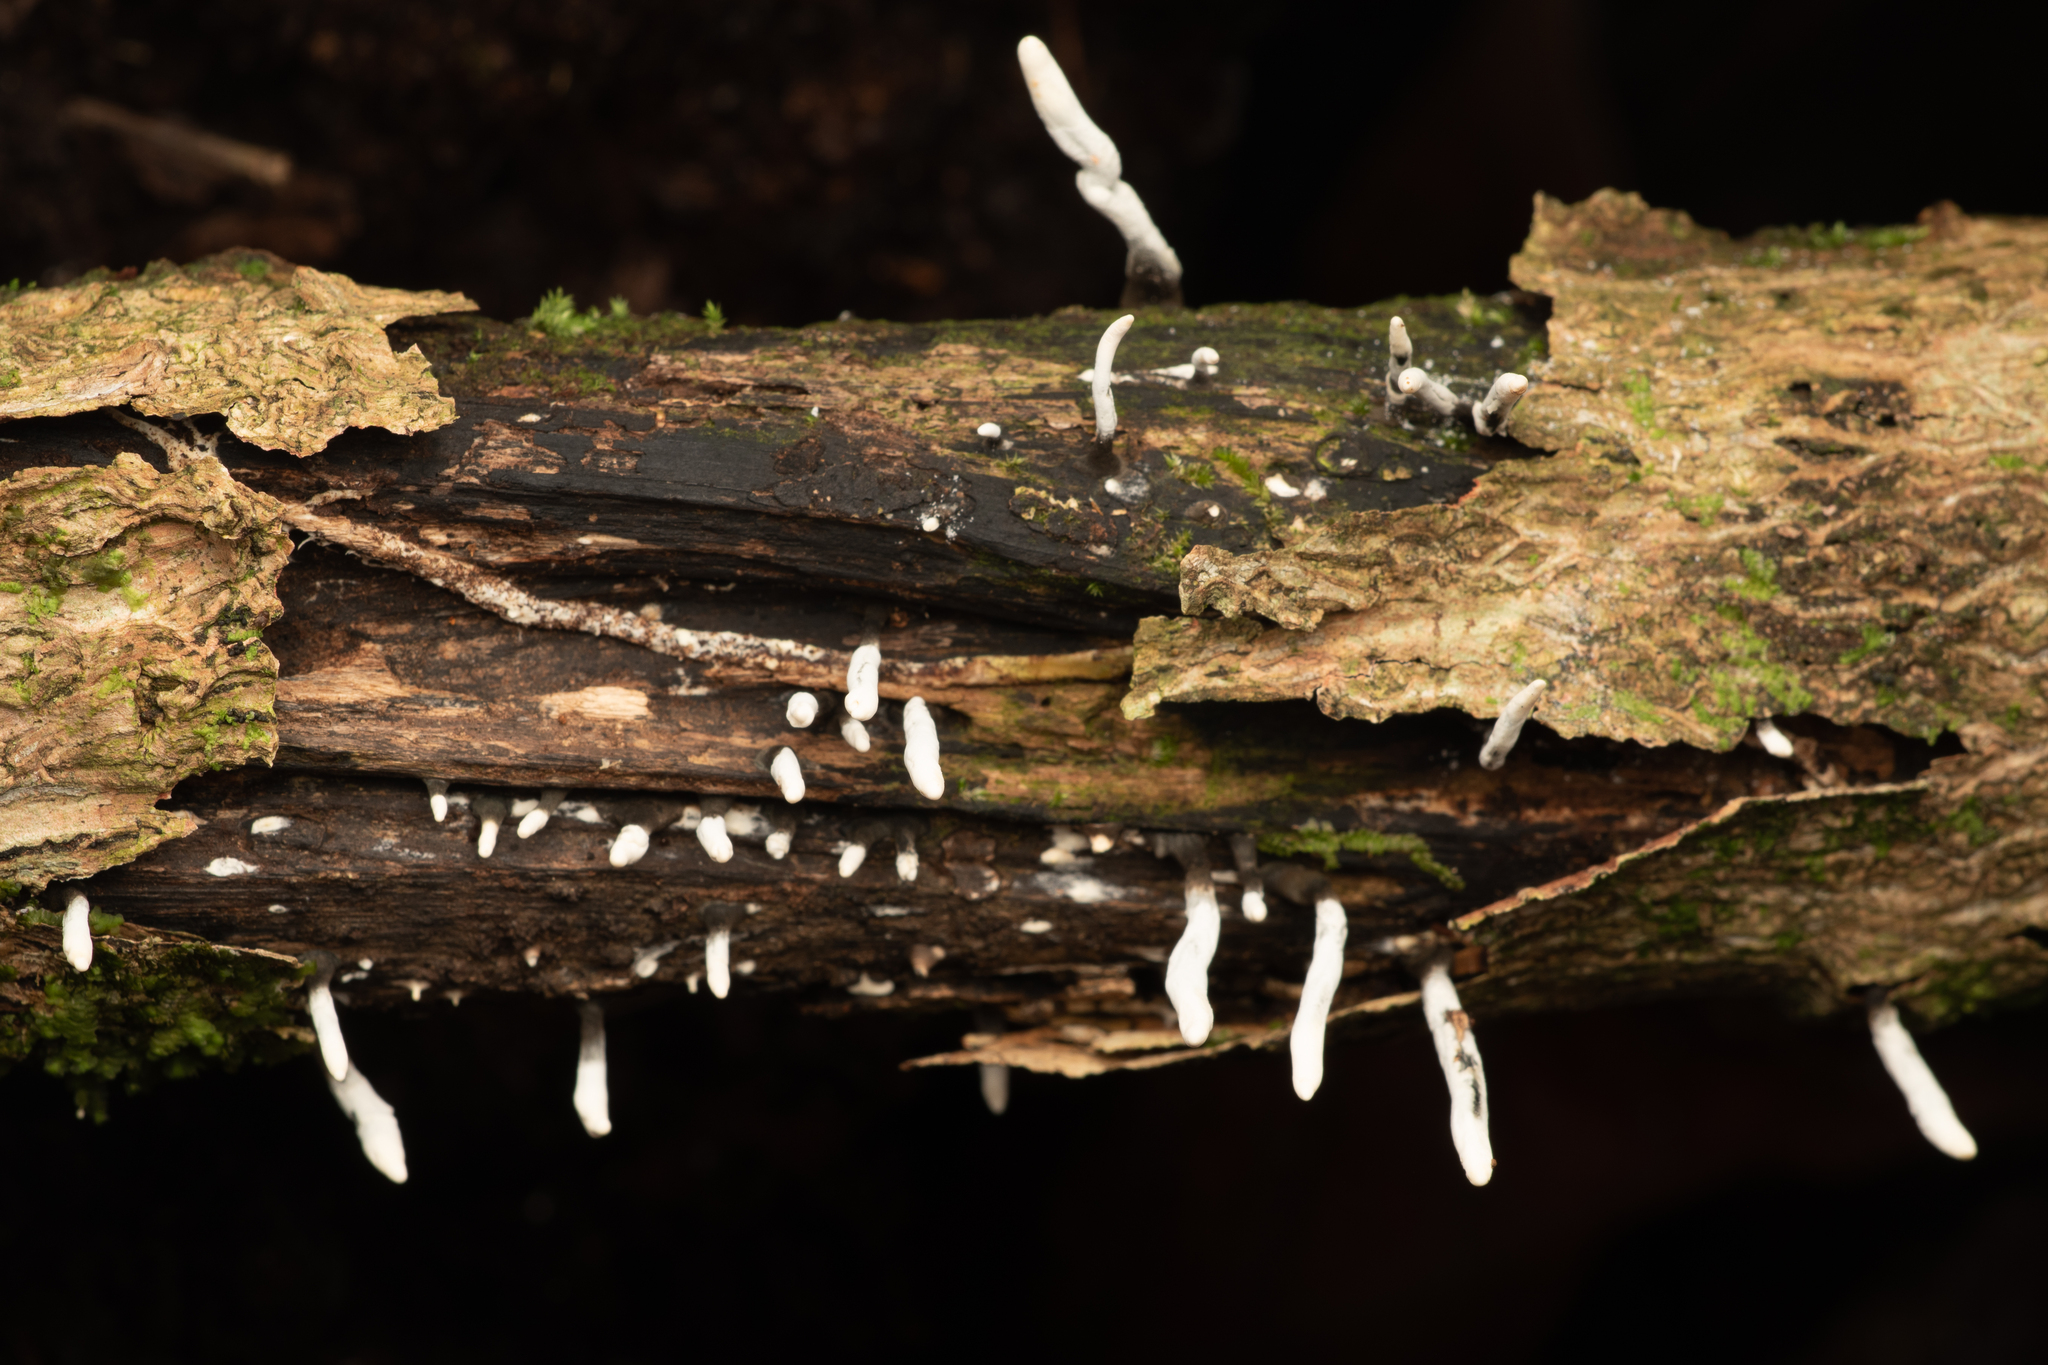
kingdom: Fungi
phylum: Ascomycota
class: Sordariomycetes
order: Xylariales
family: Xylariaceae
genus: Xylaria
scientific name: Xylaria hypoxylon
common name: Candle-snuff fungus
